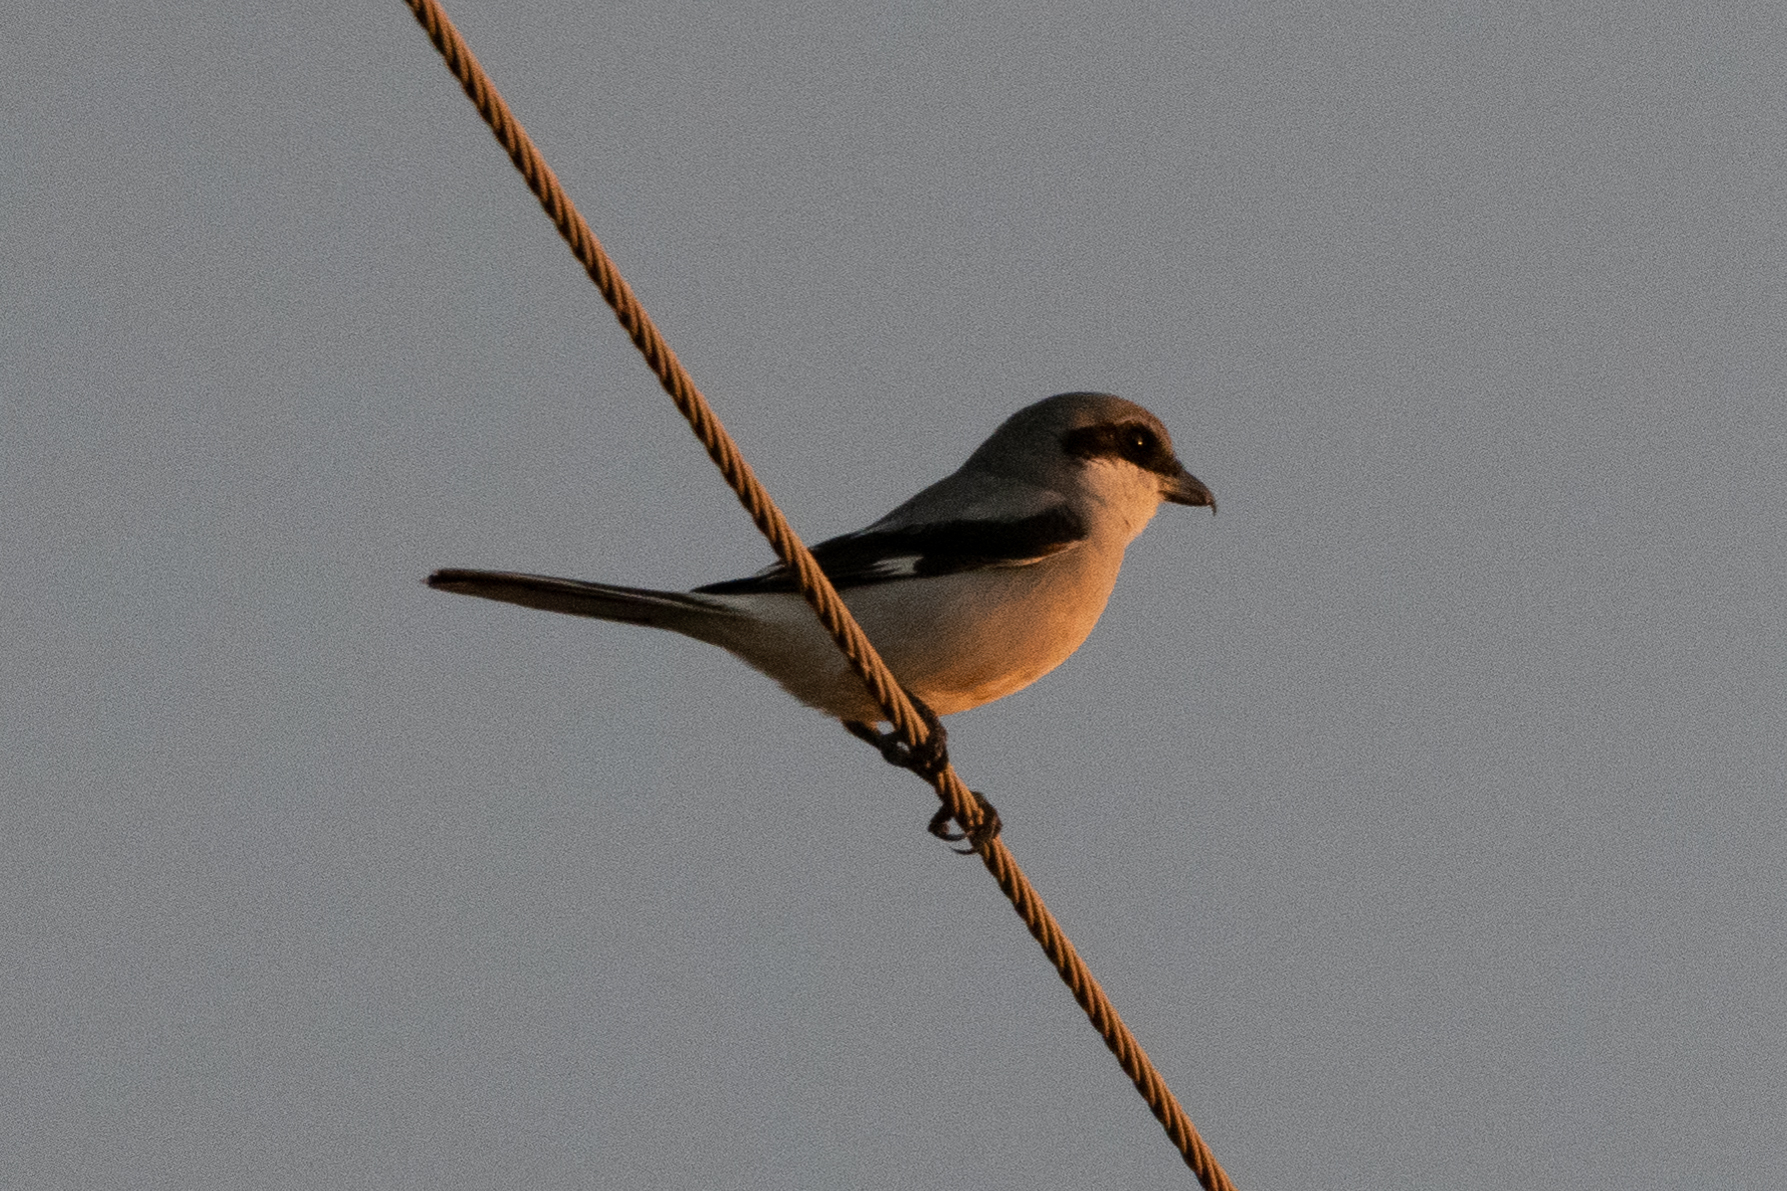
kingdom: Animalia
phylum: Chordata
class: Aves
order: Passeriformes
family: Laniidae
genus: Lanius
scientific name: Lanius ludovicianus
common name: Loggerhead shrike
